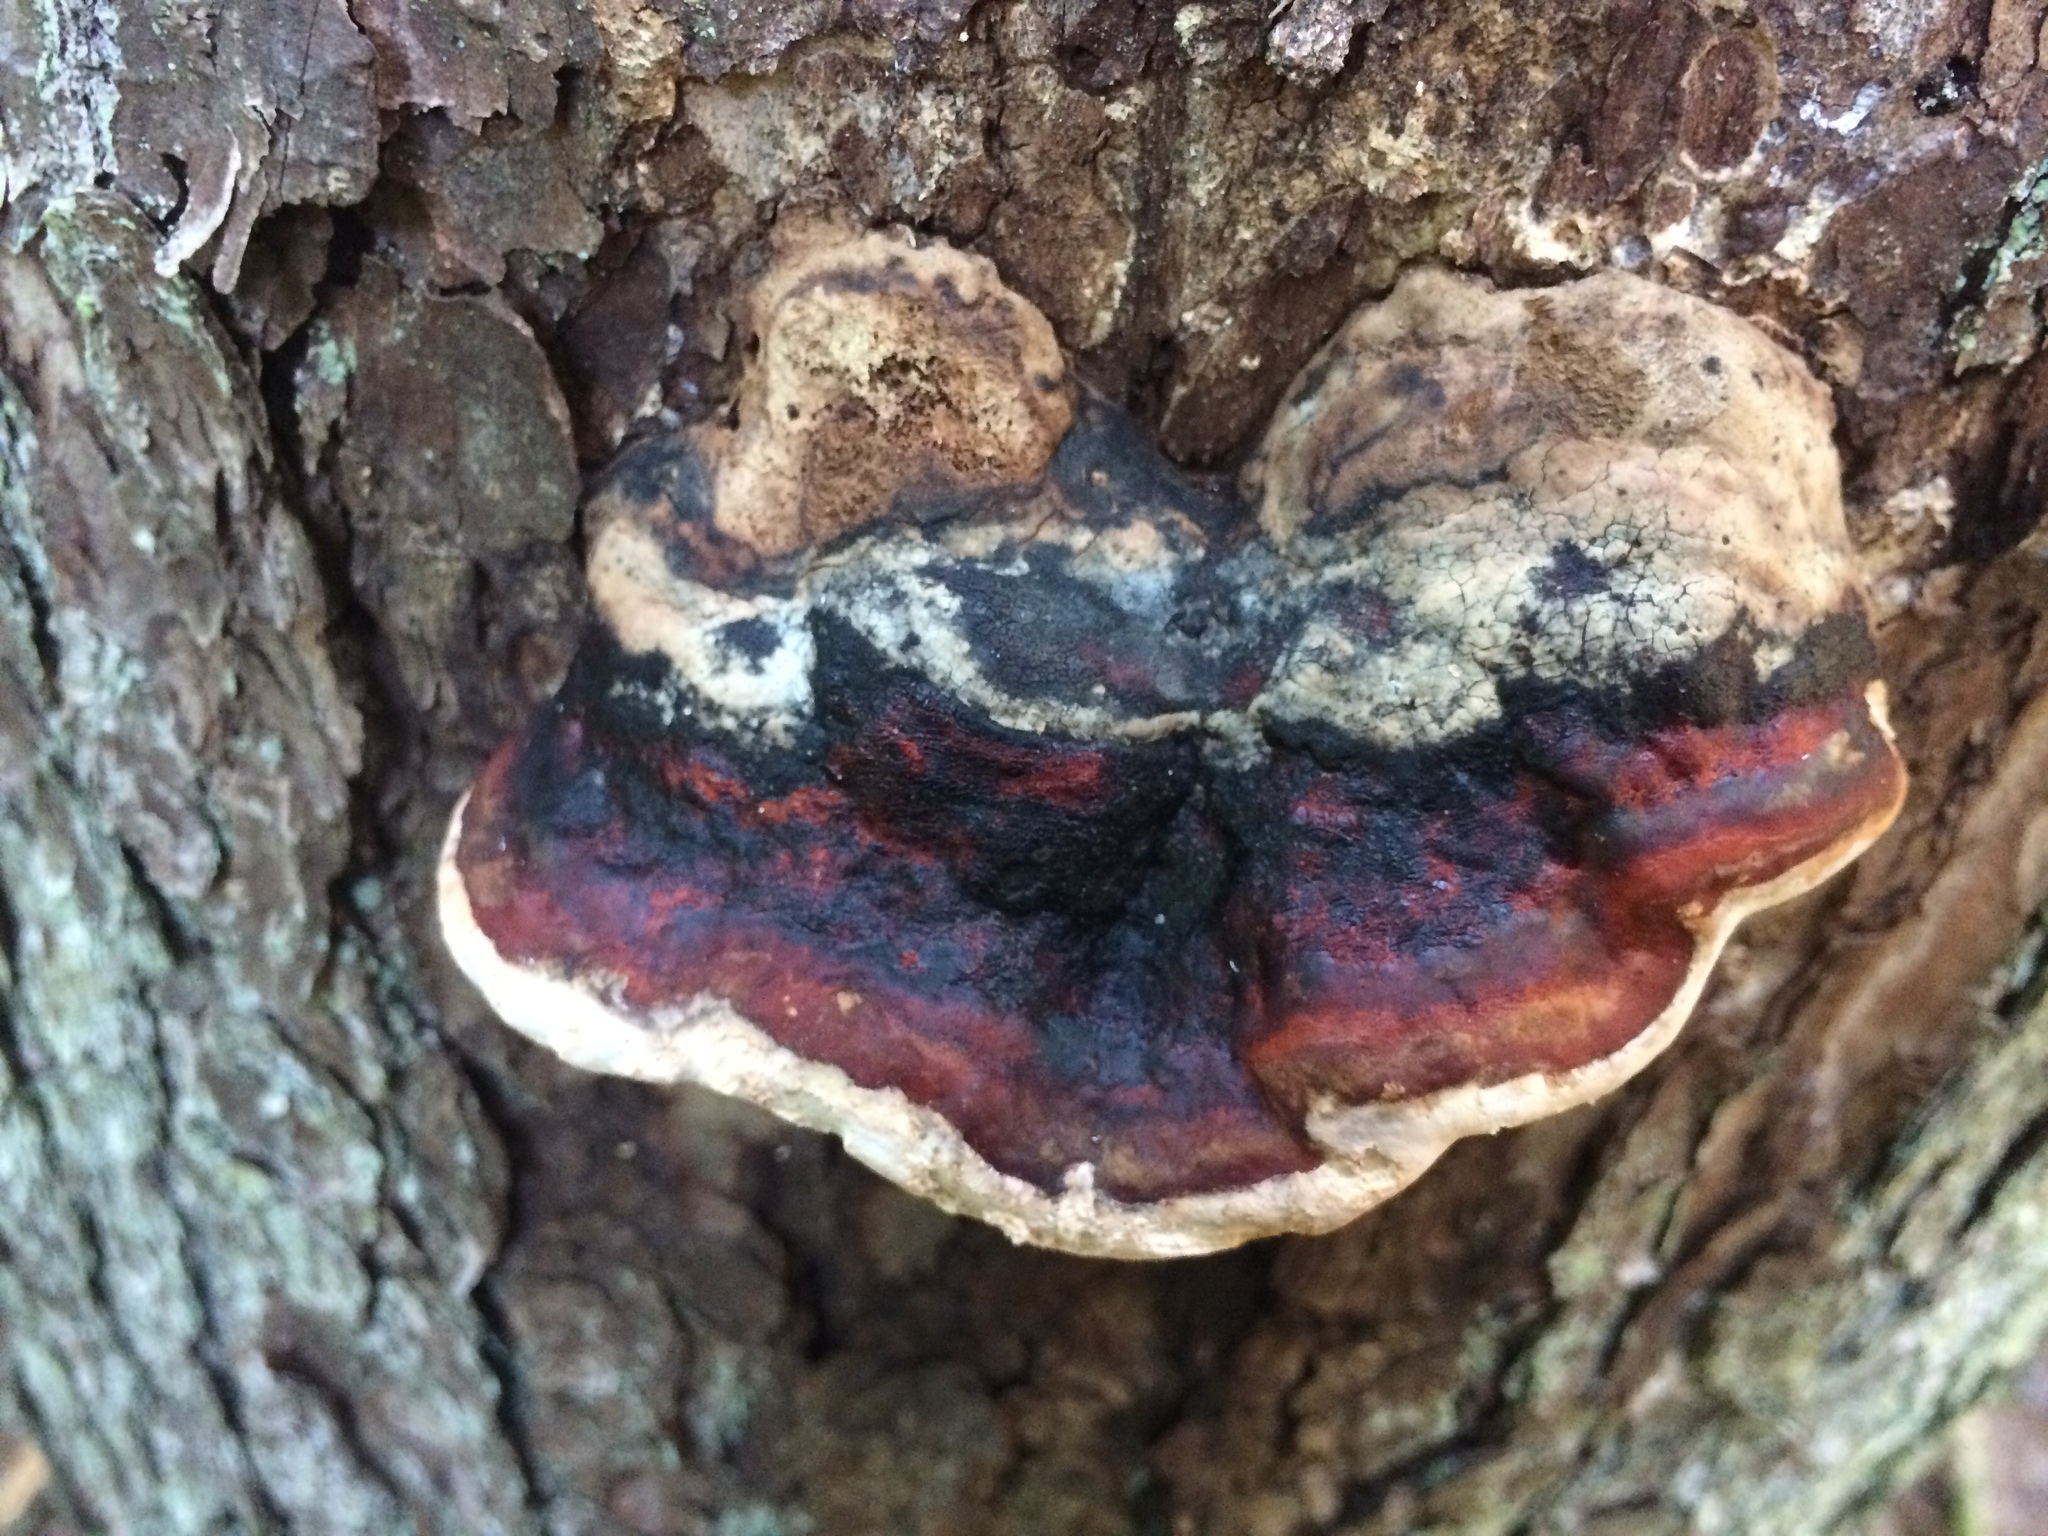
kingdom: Fungi
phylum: Basidiomycota
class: Agaricomycetes
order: Polyporales
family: Fomitopsidaceae
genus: Fomitopsis
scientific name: Fomitopsis mounceae
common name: Northern red belt
